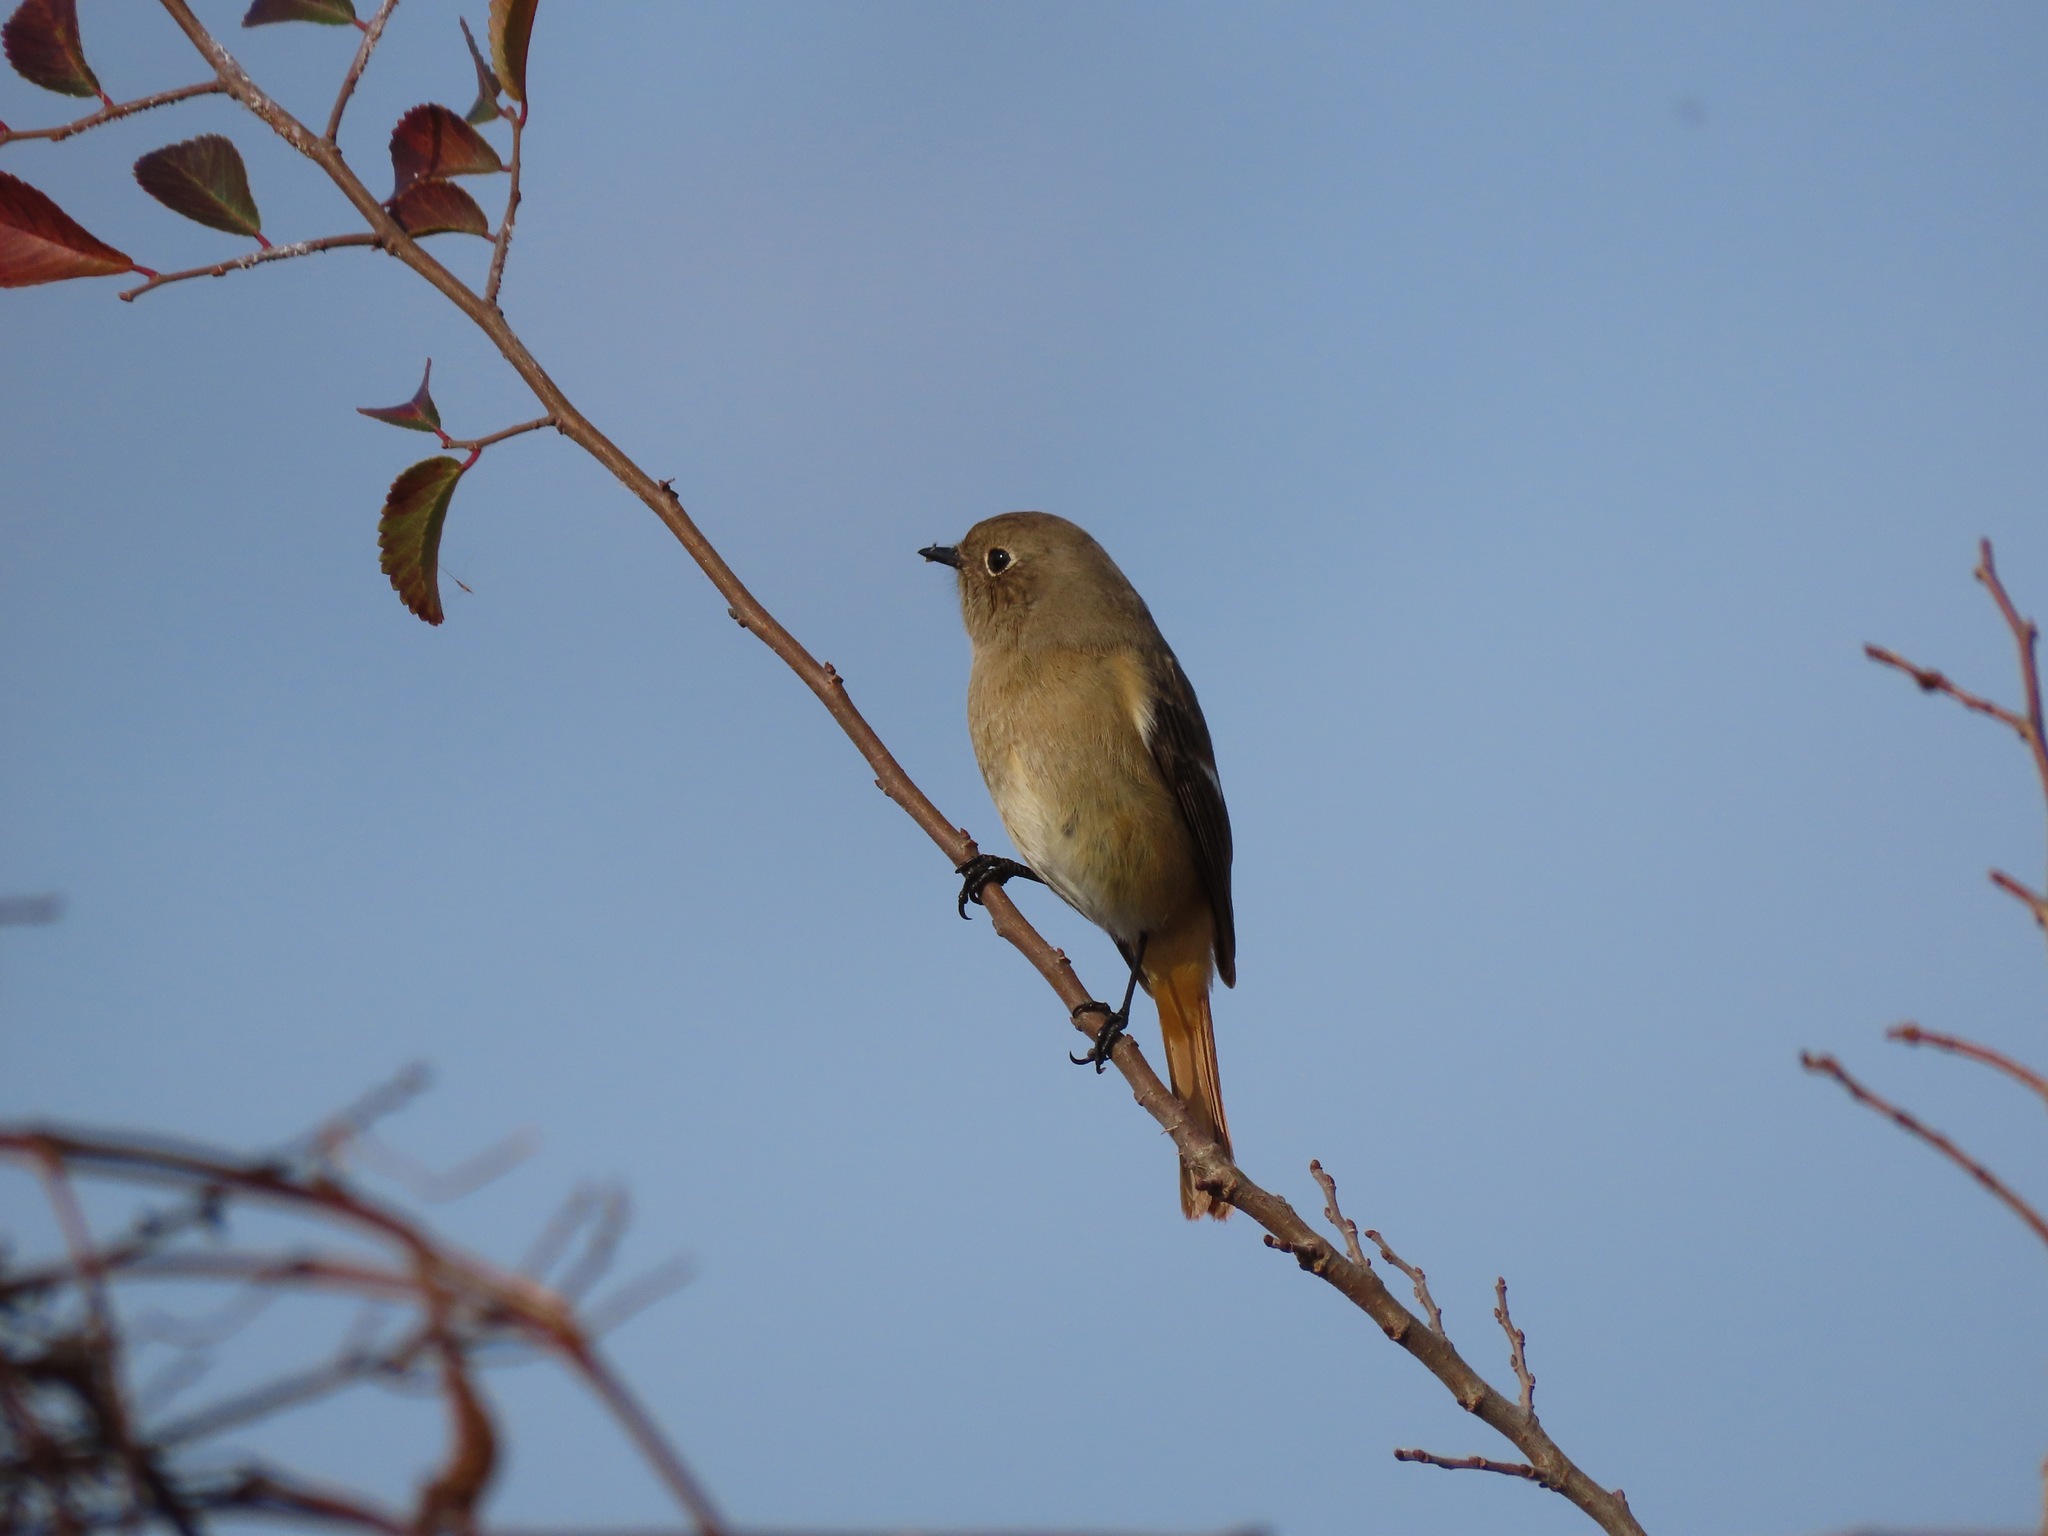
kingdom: Animalia
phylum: Chordata
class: Aves
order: Passeriformes
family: Muscicapidae
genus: Phoenicurus
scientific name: Phoenicurus auroreus
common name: Daurian redstart
